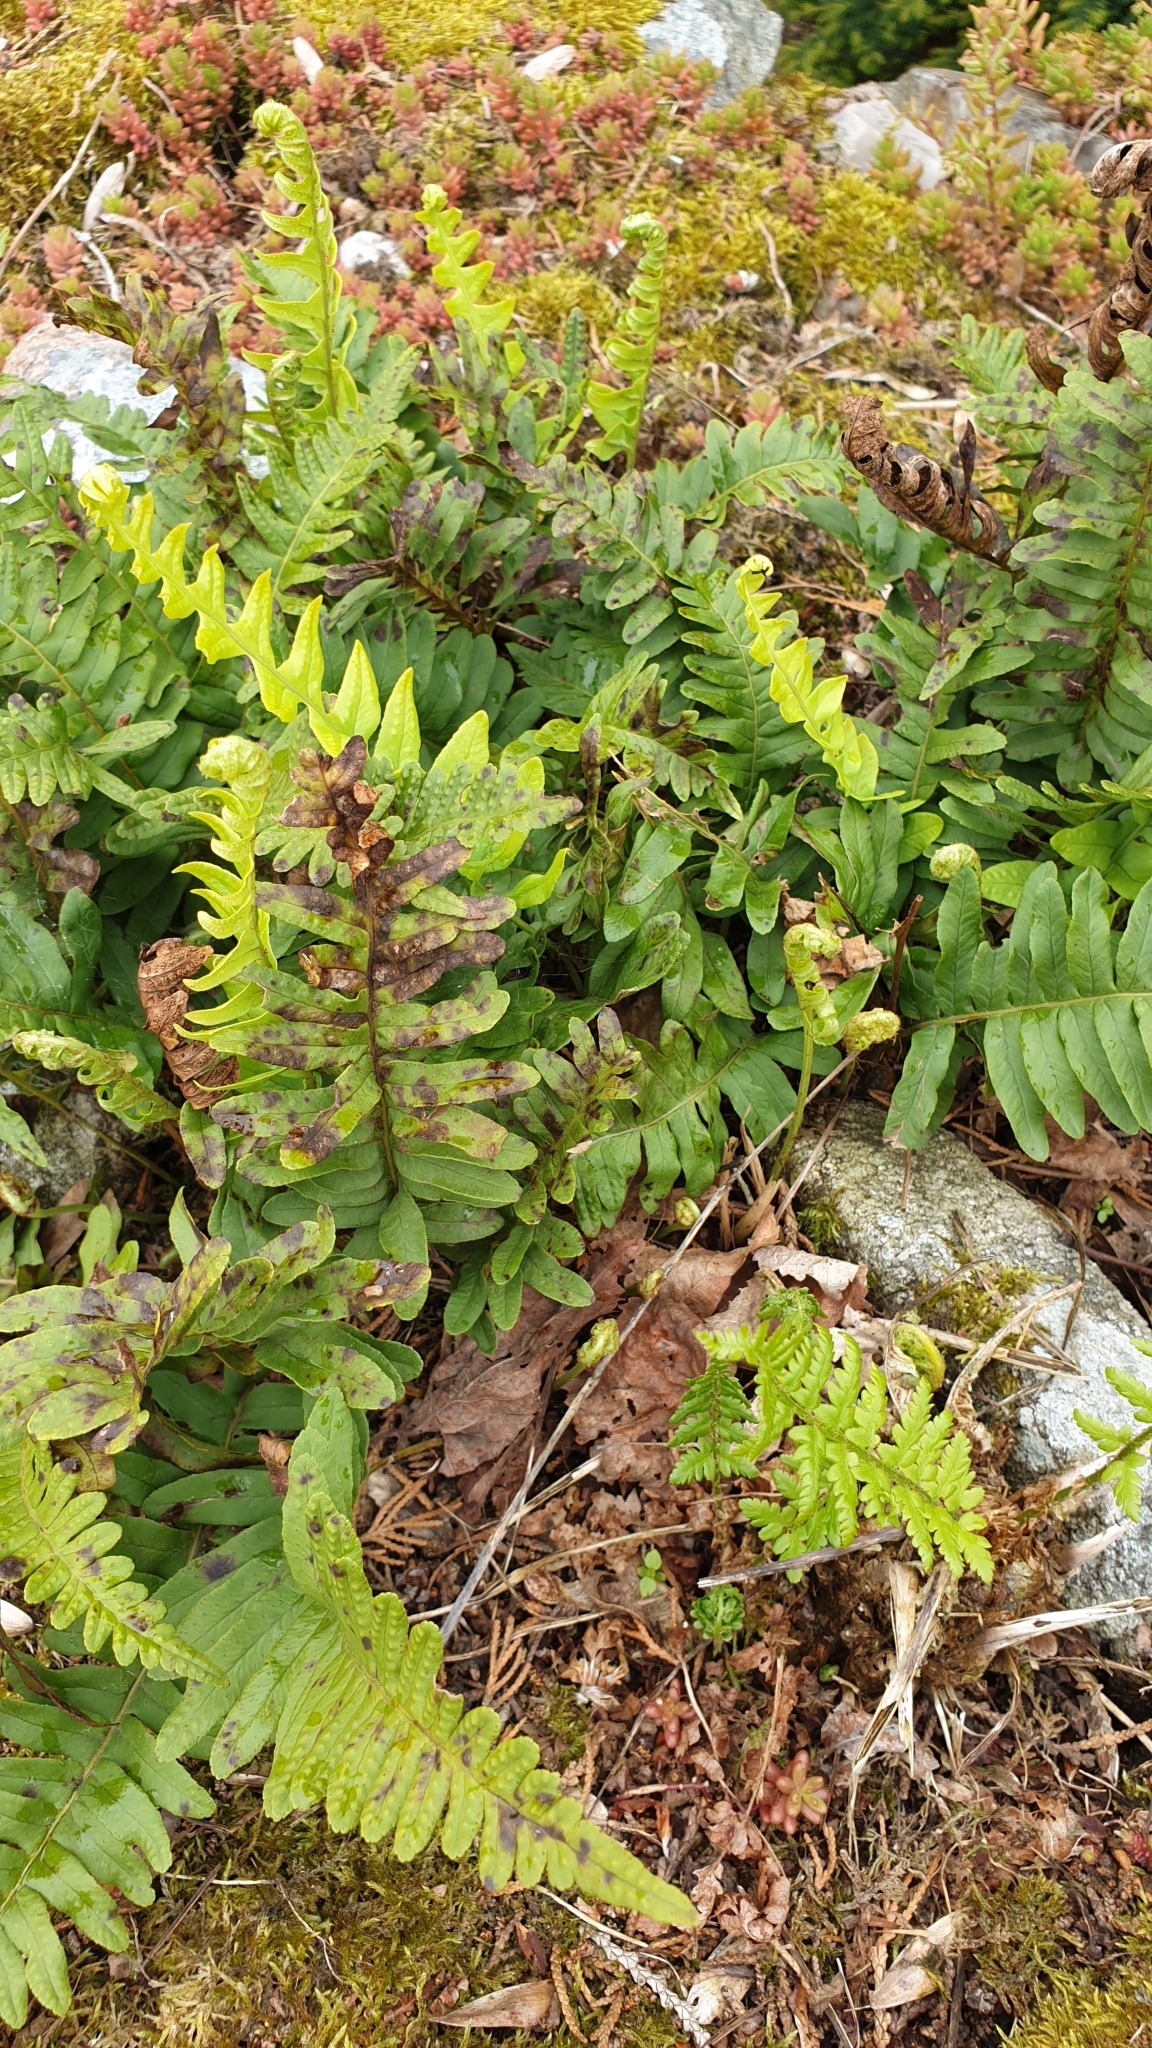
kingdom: Plantae
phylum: Tracheophyta
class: Polypodiopsida
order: Polypodiales
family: Polypodiaceae
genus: Polypodium
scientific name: Polypodium vulgare
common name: Common polypody
